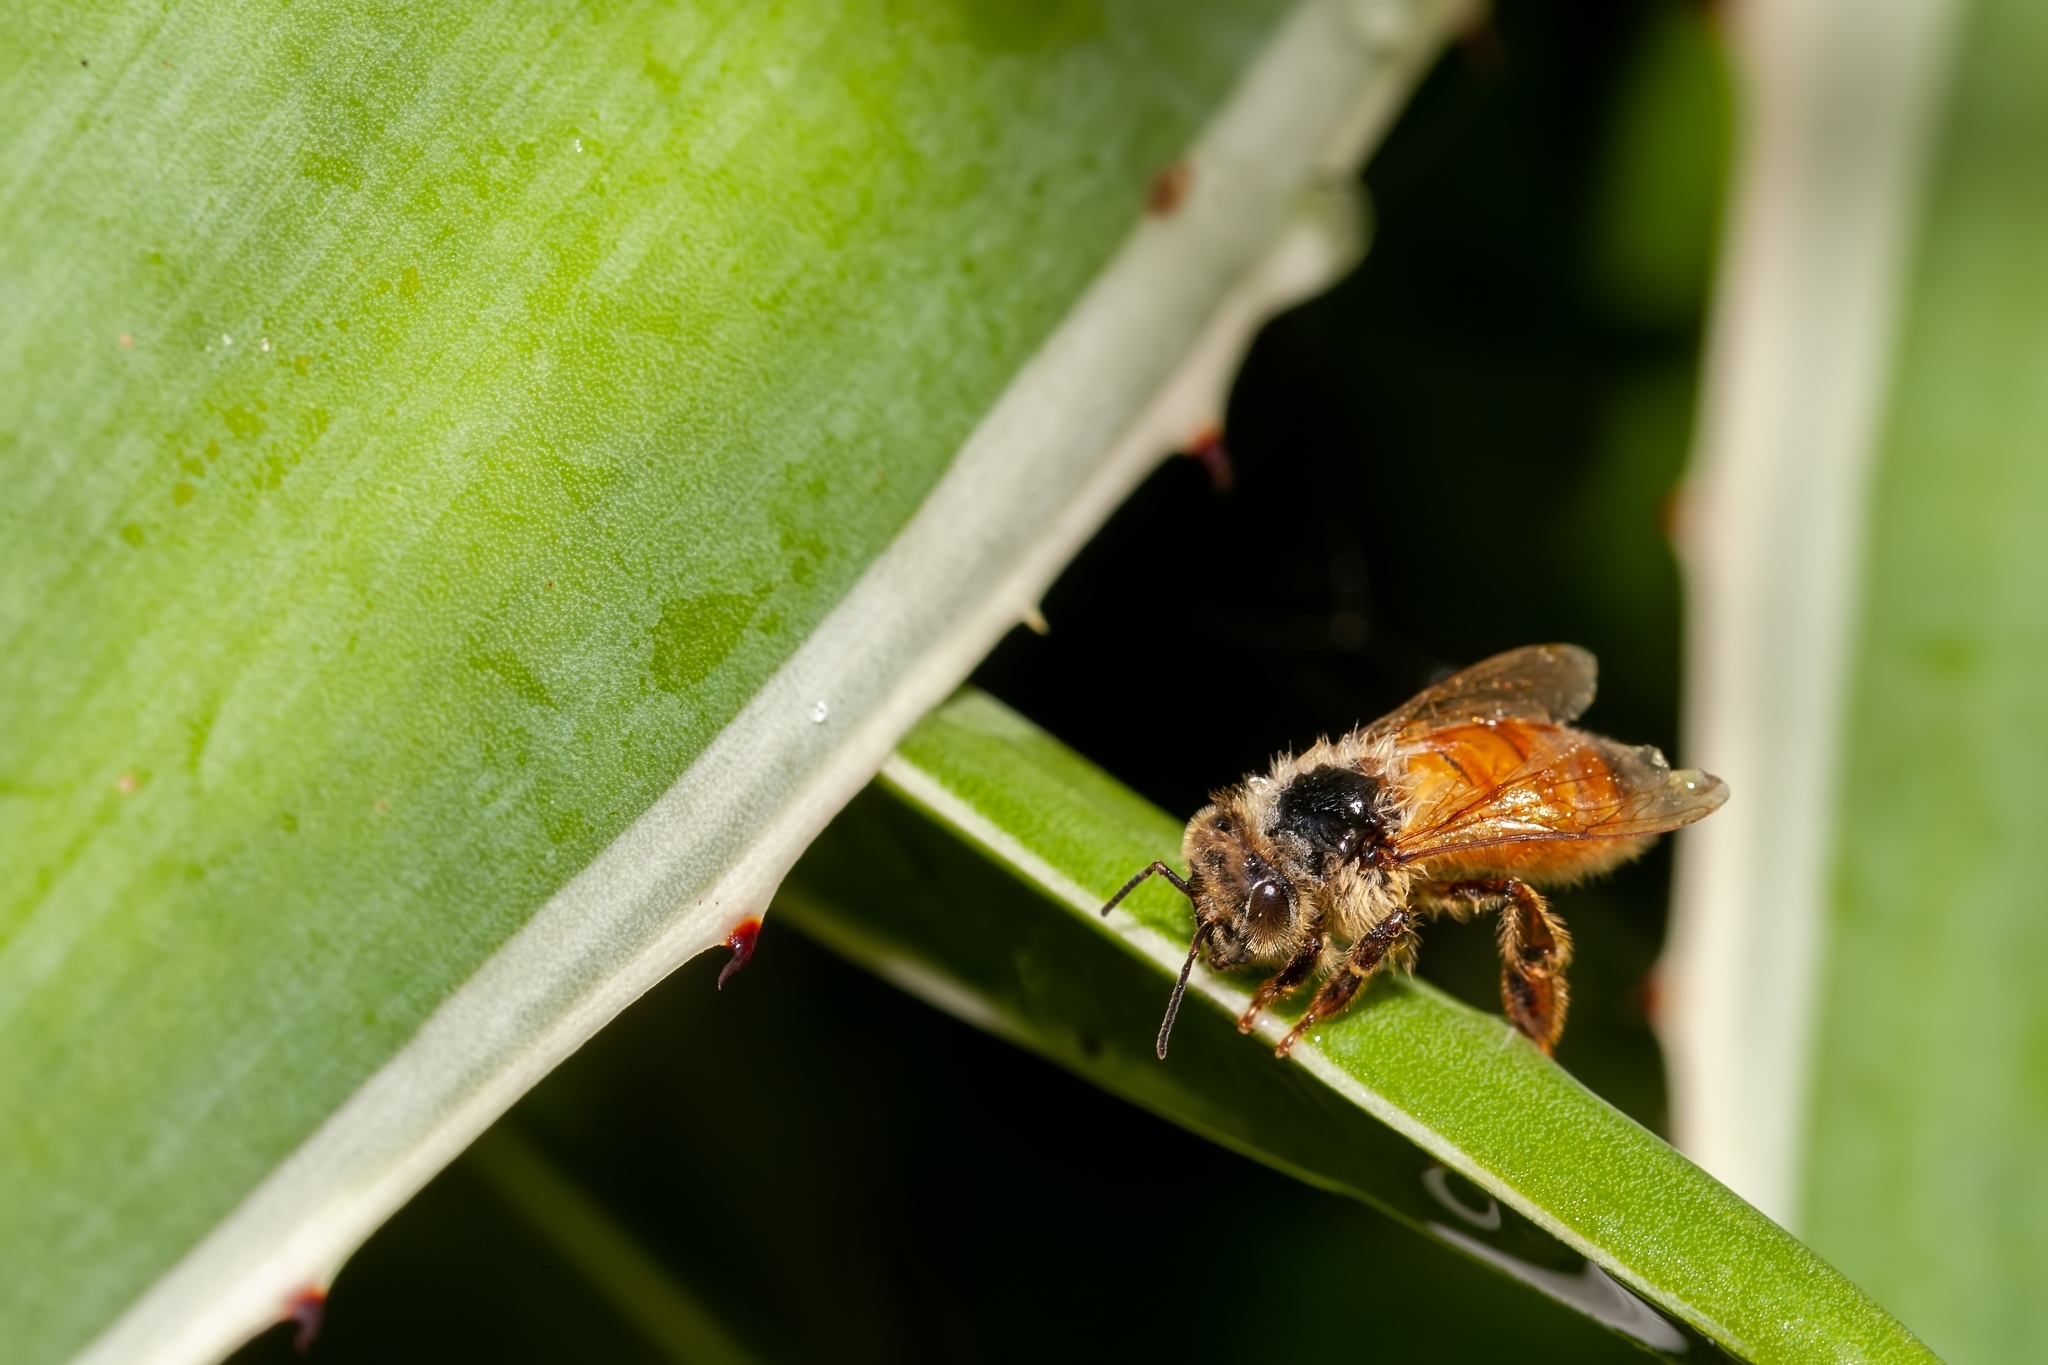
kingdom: Animalia
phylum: Arthropoda
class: Insecta
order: Hymenoptera
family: Apidae
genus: Apis
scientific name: Apis mellifera
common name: Honey bee
